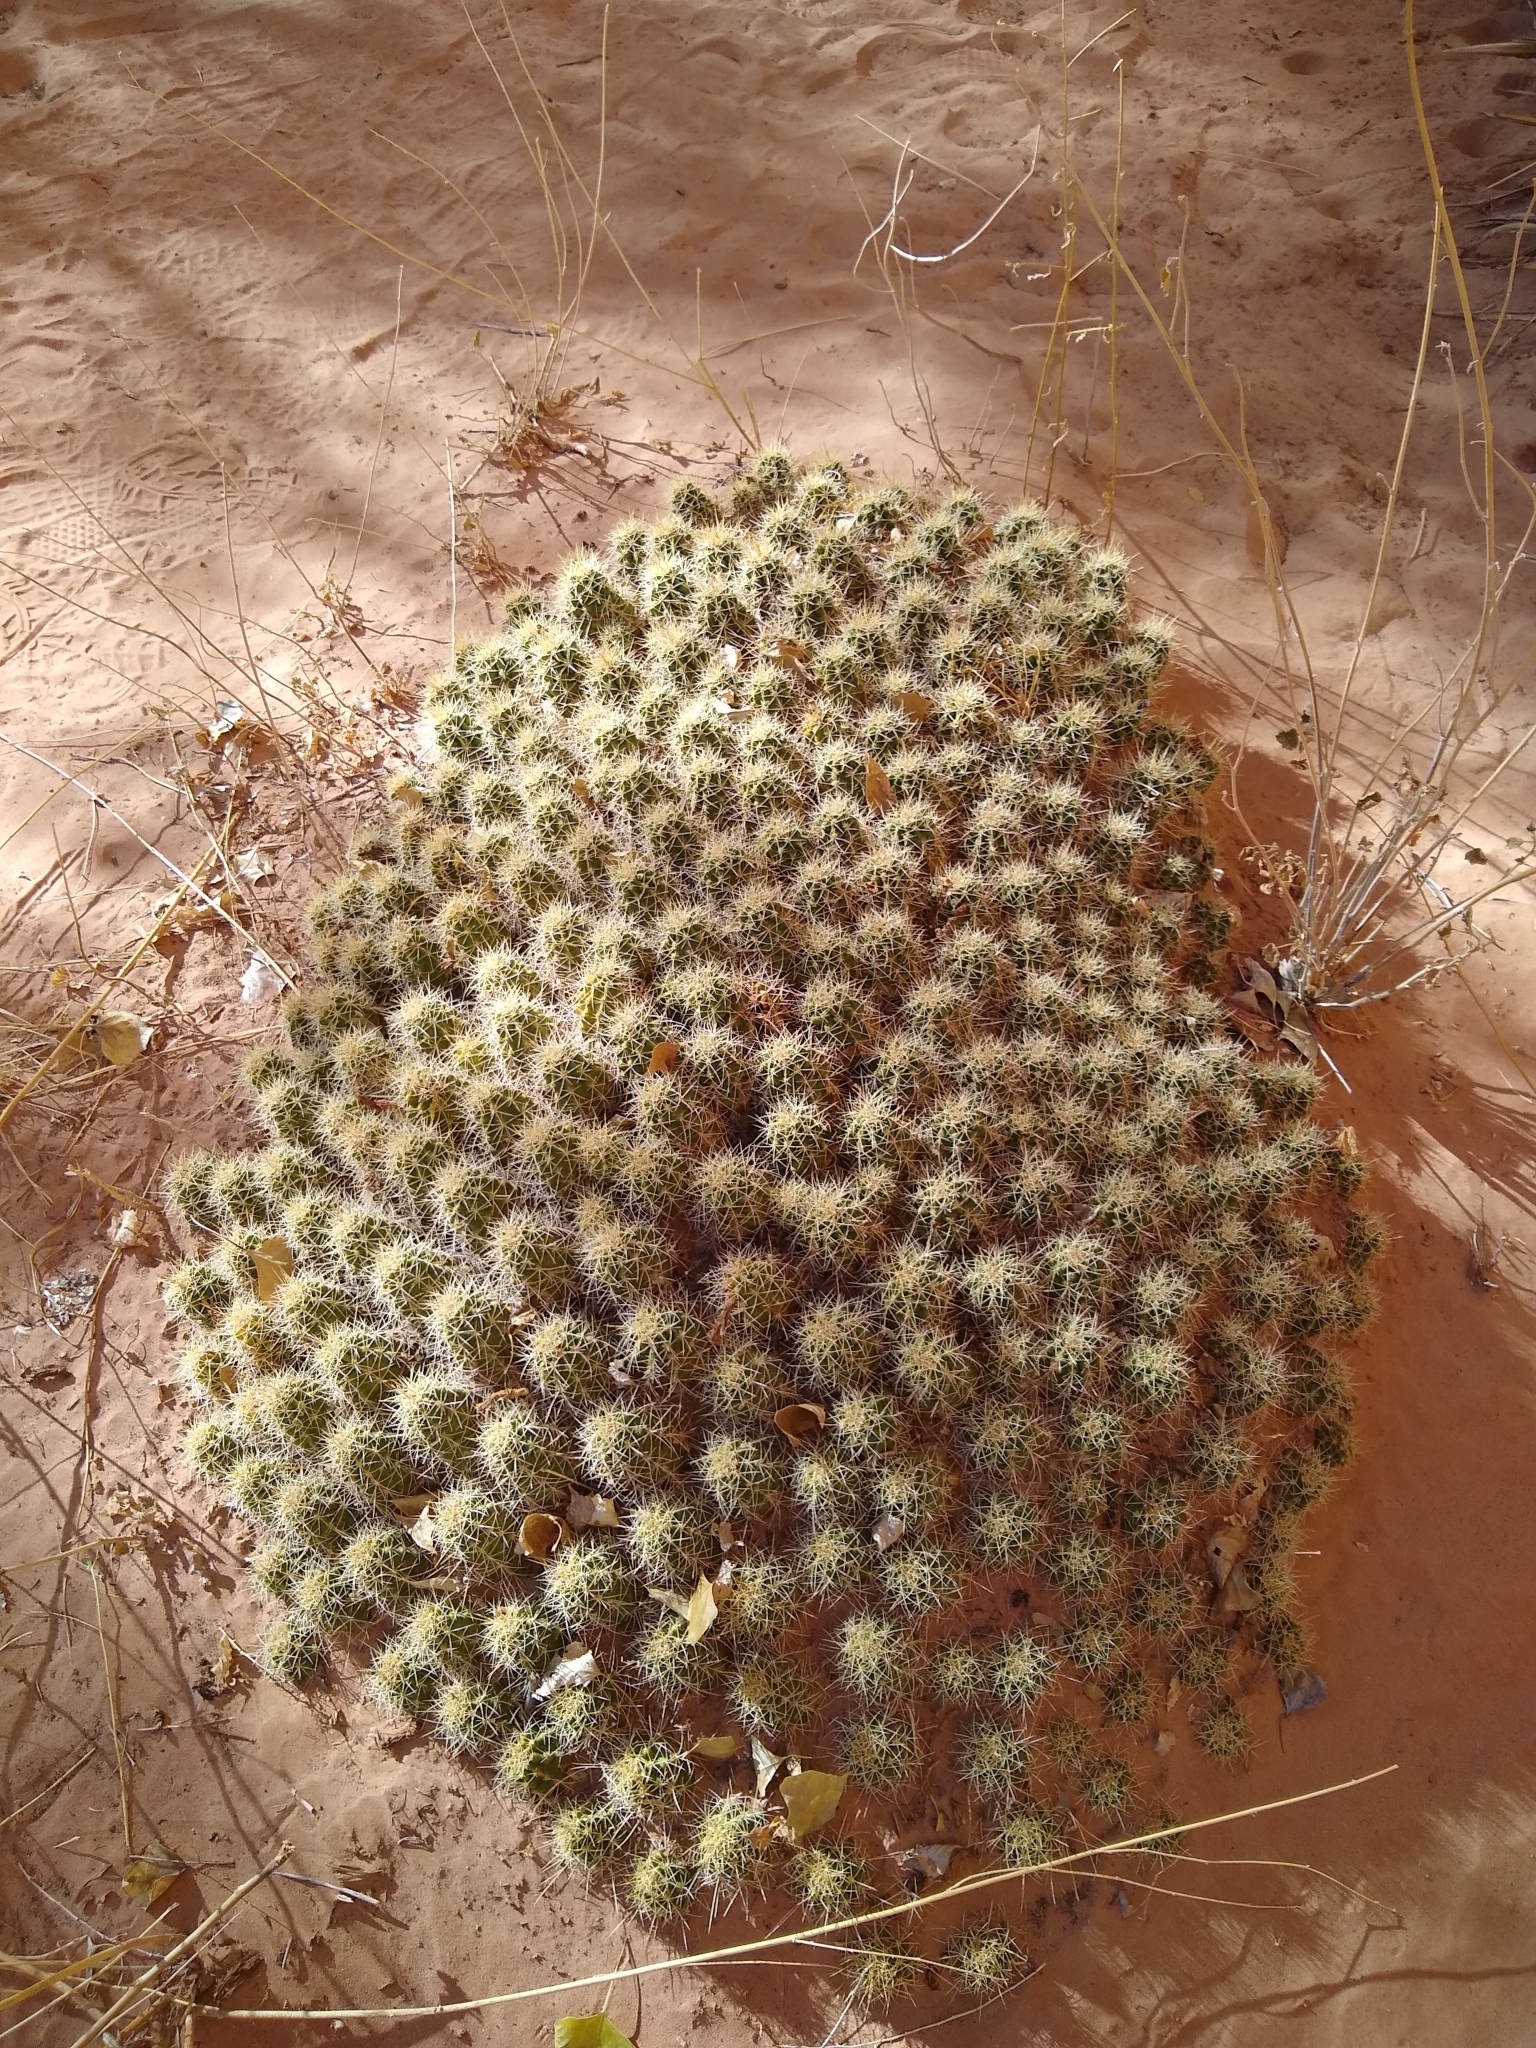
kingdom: Plantae
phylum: Tracheophyta
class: Magnoliopsida
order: Caryophyllales
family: Cactaceae
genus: Echinocereus
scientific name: Echinocereus triglochidiatus
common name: Claretcup hedgehog
